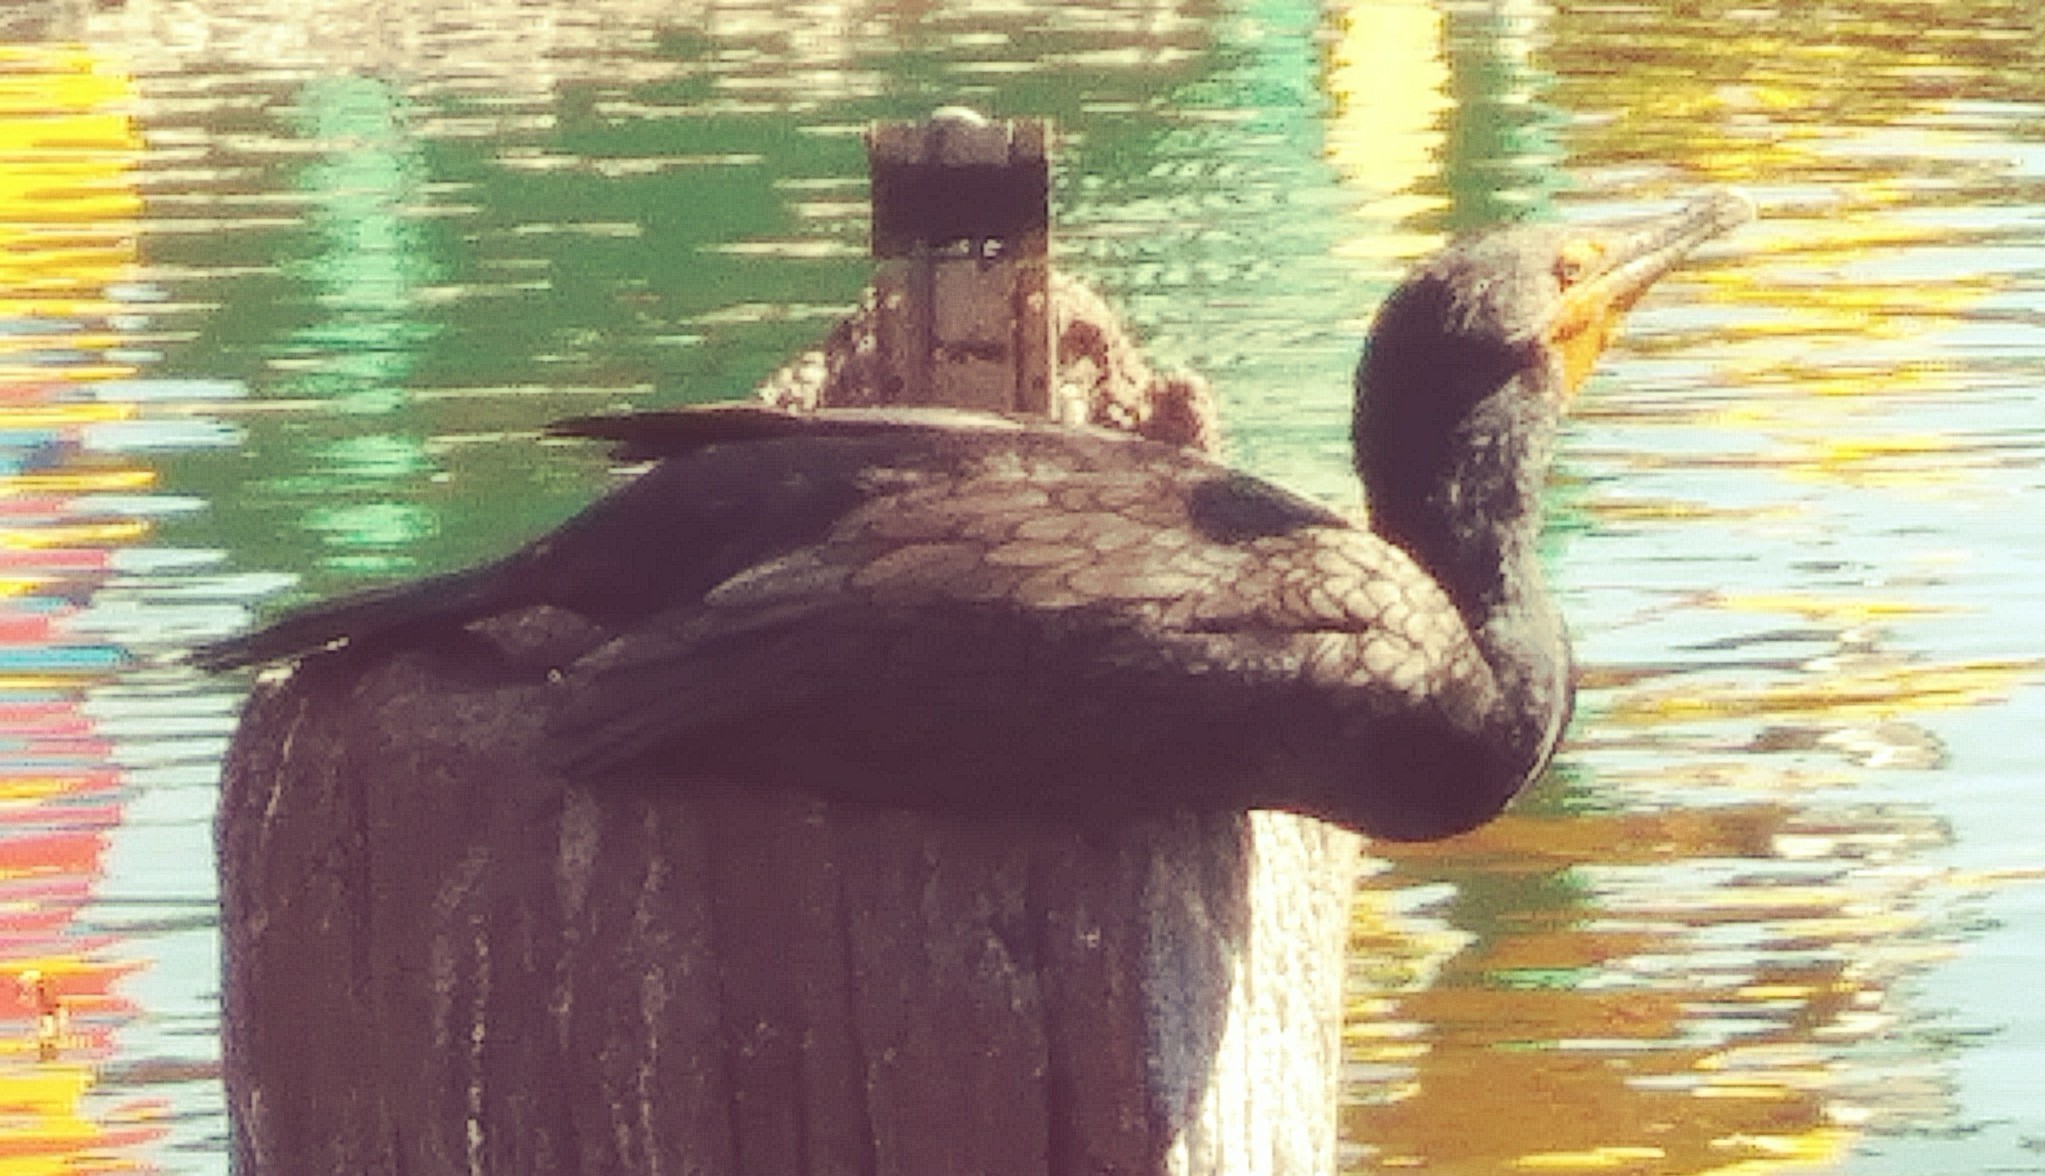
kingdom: Animalia
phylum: Chordata
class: Aves
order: Suliformes
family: Phalacrocoracidae
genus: Phalacrocorax
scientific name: Phalacrocorax auritus
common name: Double-crested cormorant
